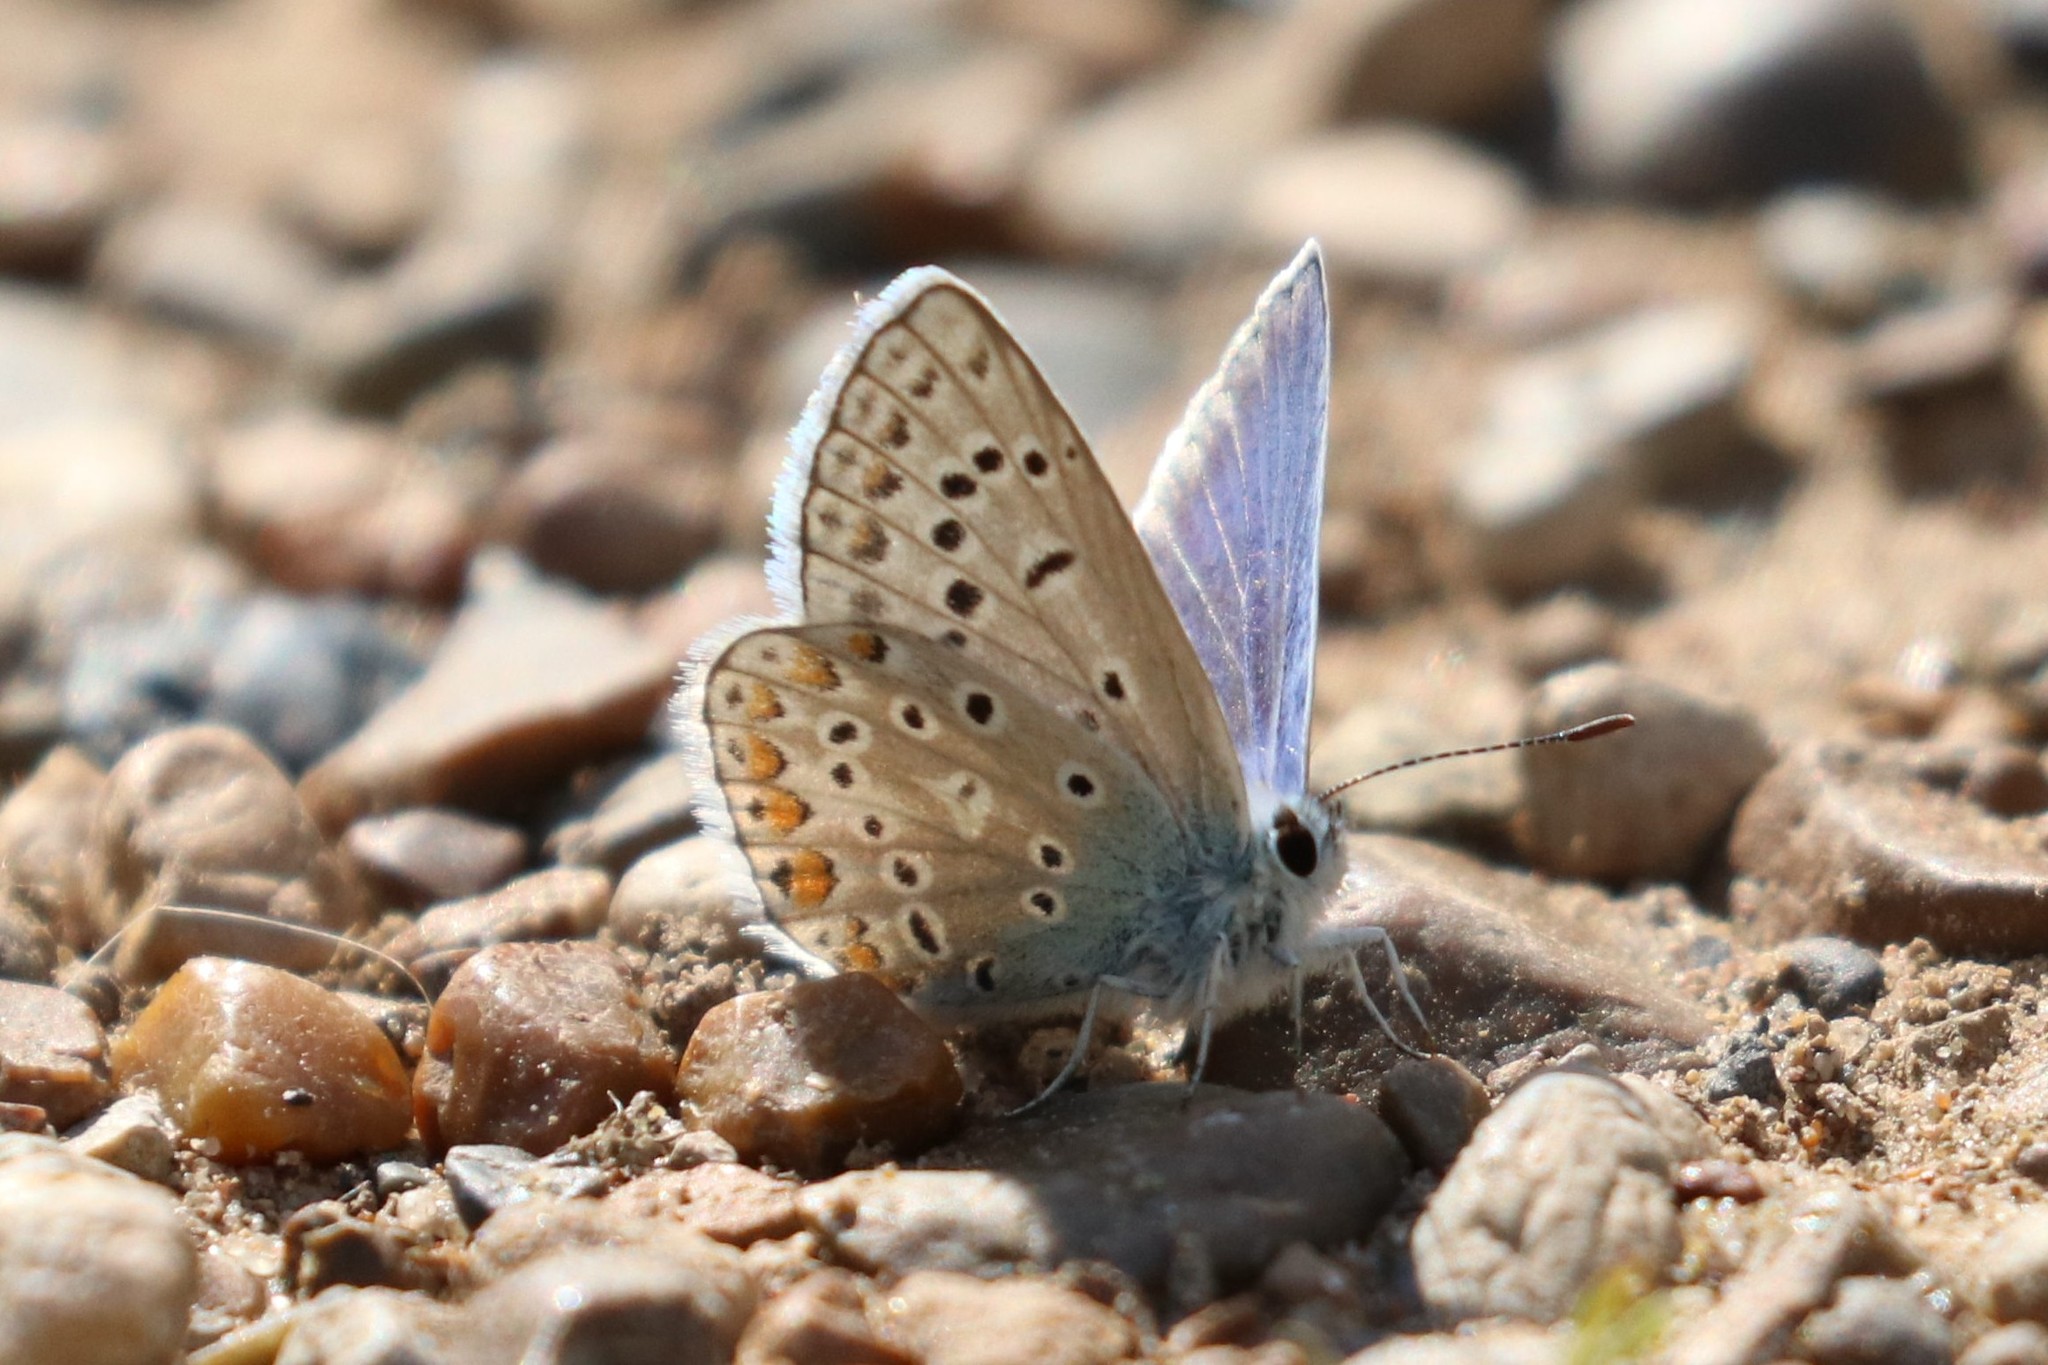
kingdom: Animalia
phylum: Arthropoda
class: Insecta
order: Lepidoptera
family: Lycaenidae
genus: Polyommatus
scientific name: Polyommatus icarus
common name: Common blue
